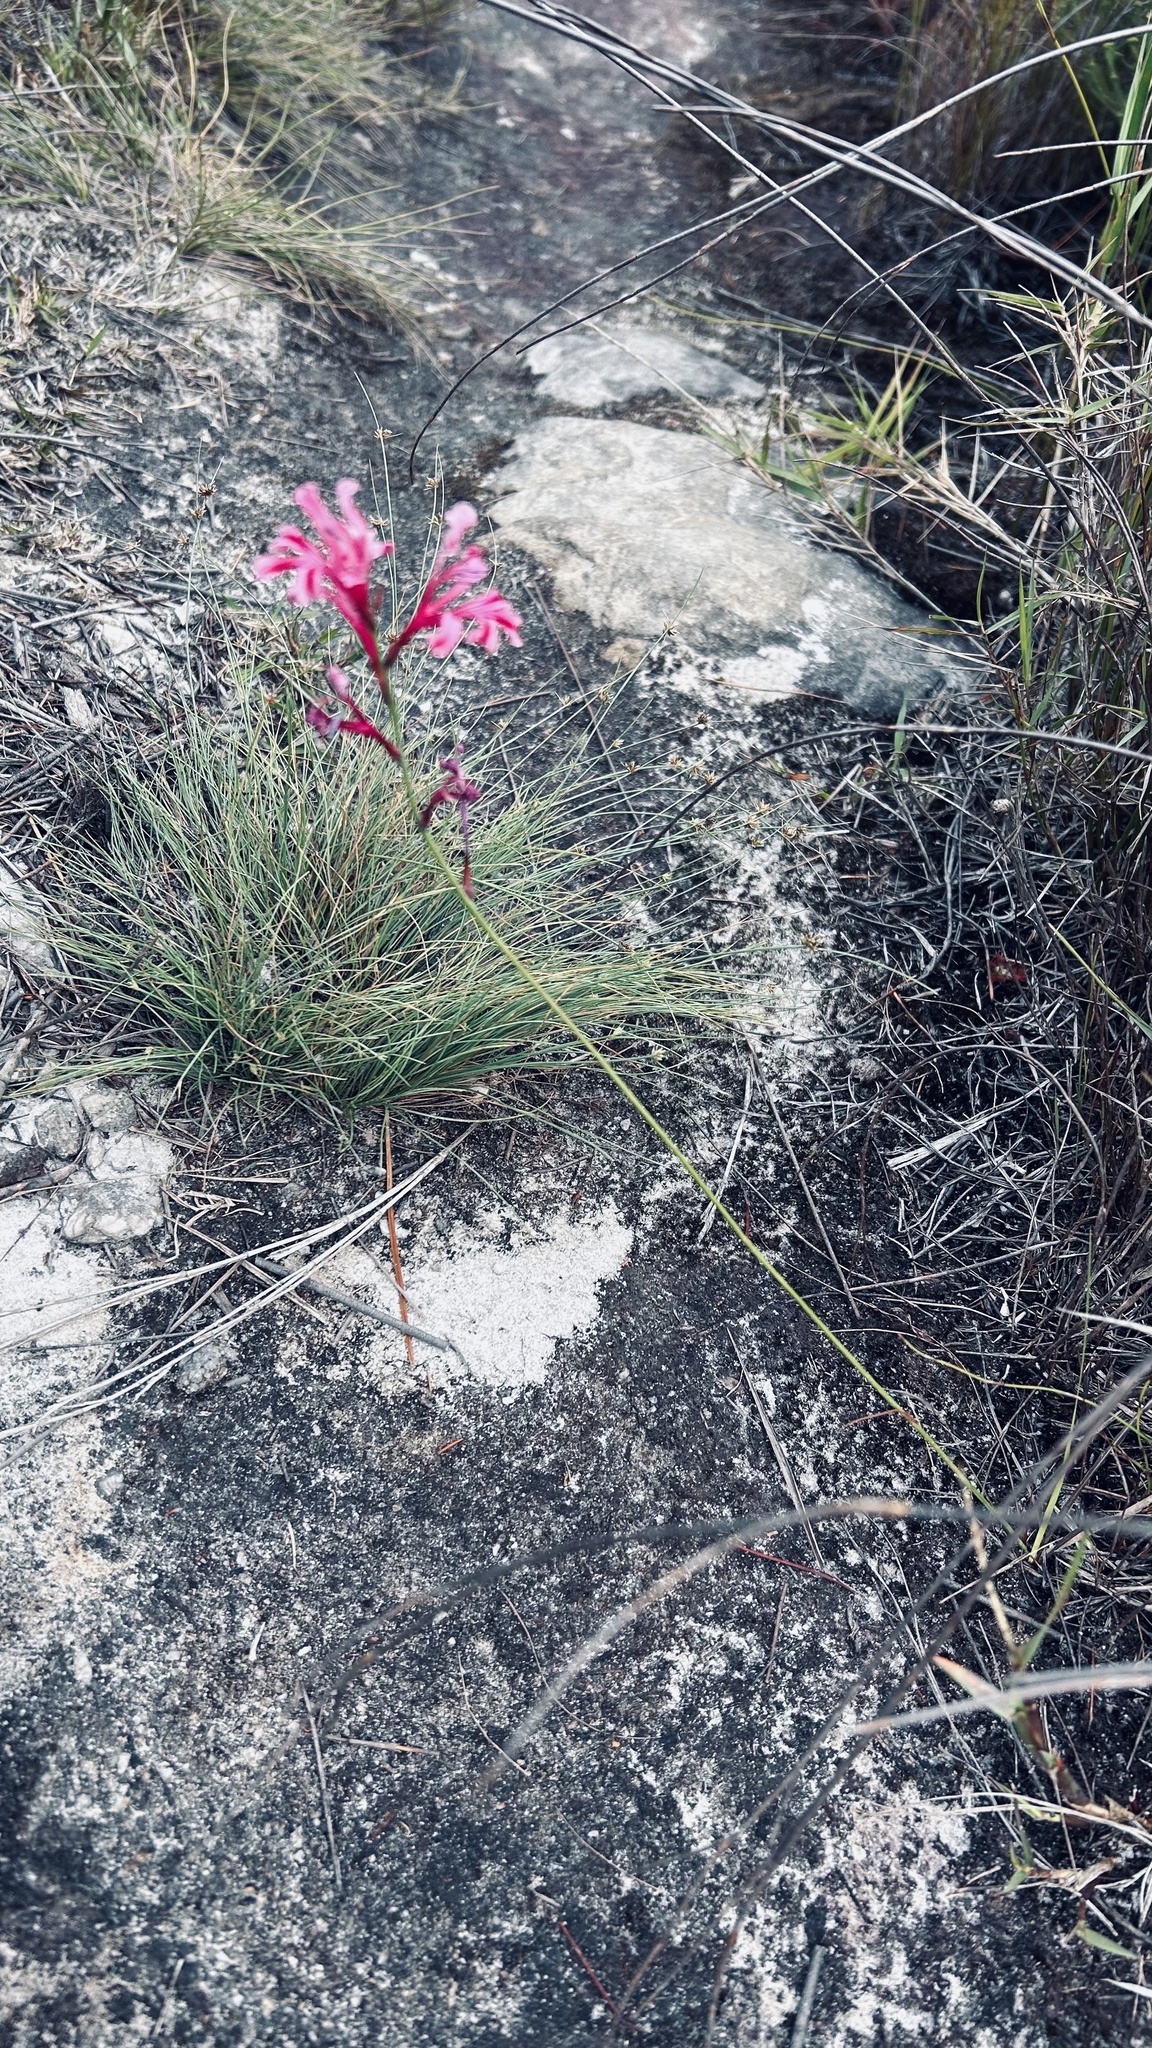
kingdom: Plantae
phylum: Tracheophyta
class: Liliopsida
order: Asparagales
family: Iridaceae
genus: Tritoniopsis
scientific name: Tritoniopsis ramosa
